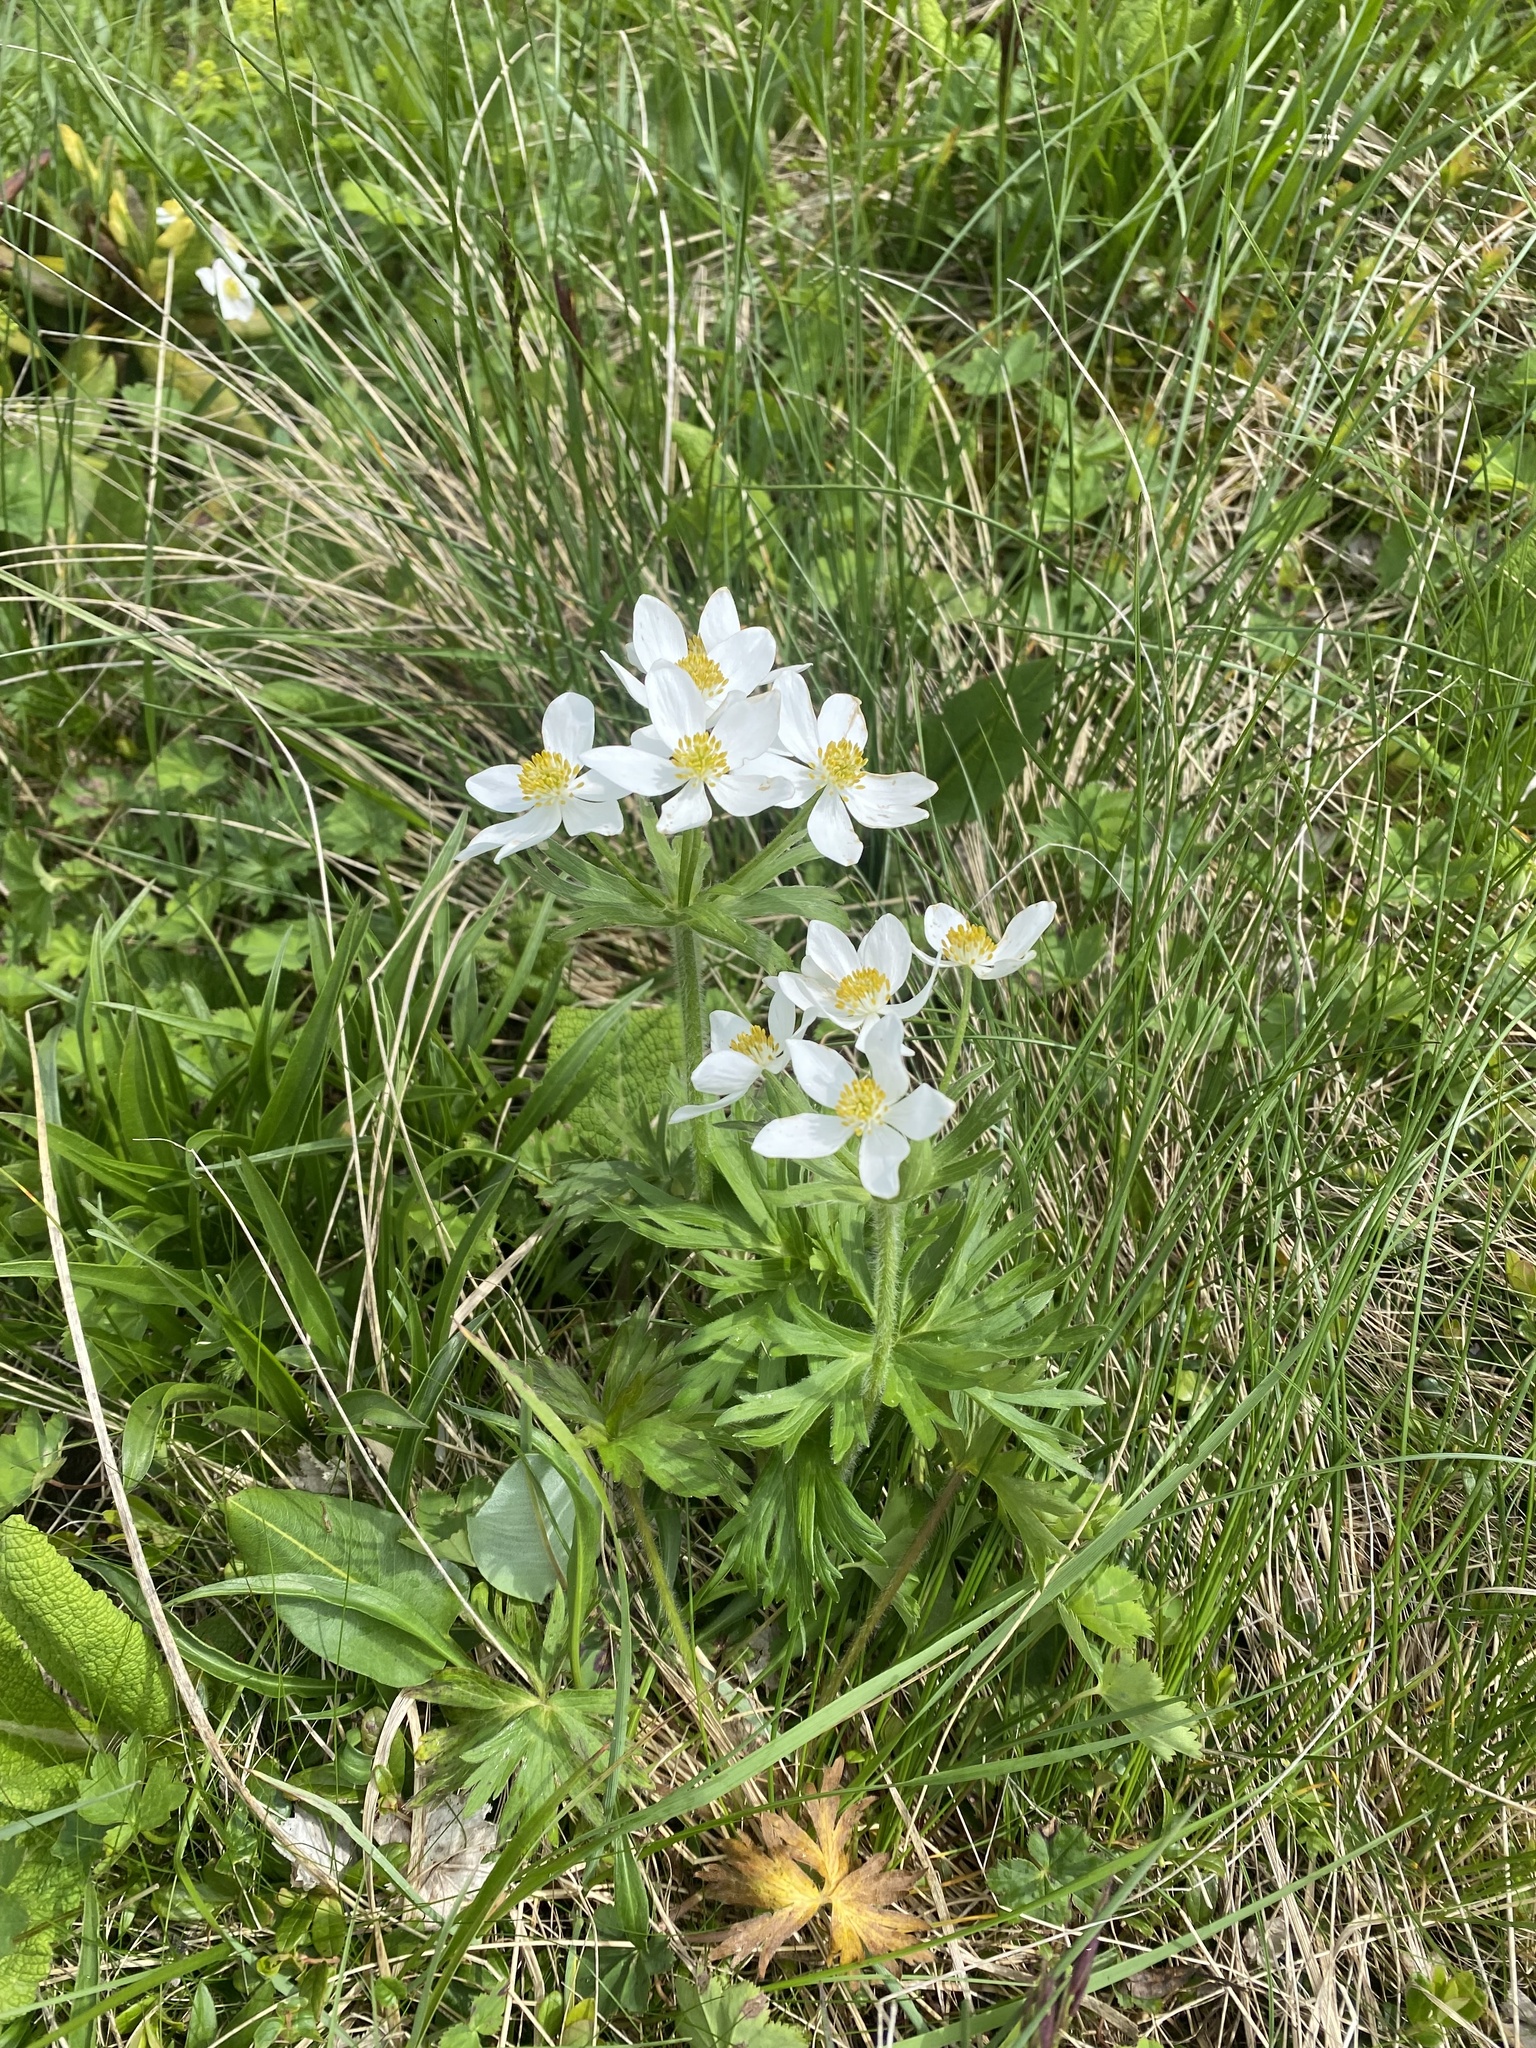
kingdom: Plantae
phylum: Tracheophyta
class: Magnoliopsida
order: Ranunculales
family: Ranunculaceae
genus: Anemonastrum
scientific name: Anemonastrum narcissiflorum
